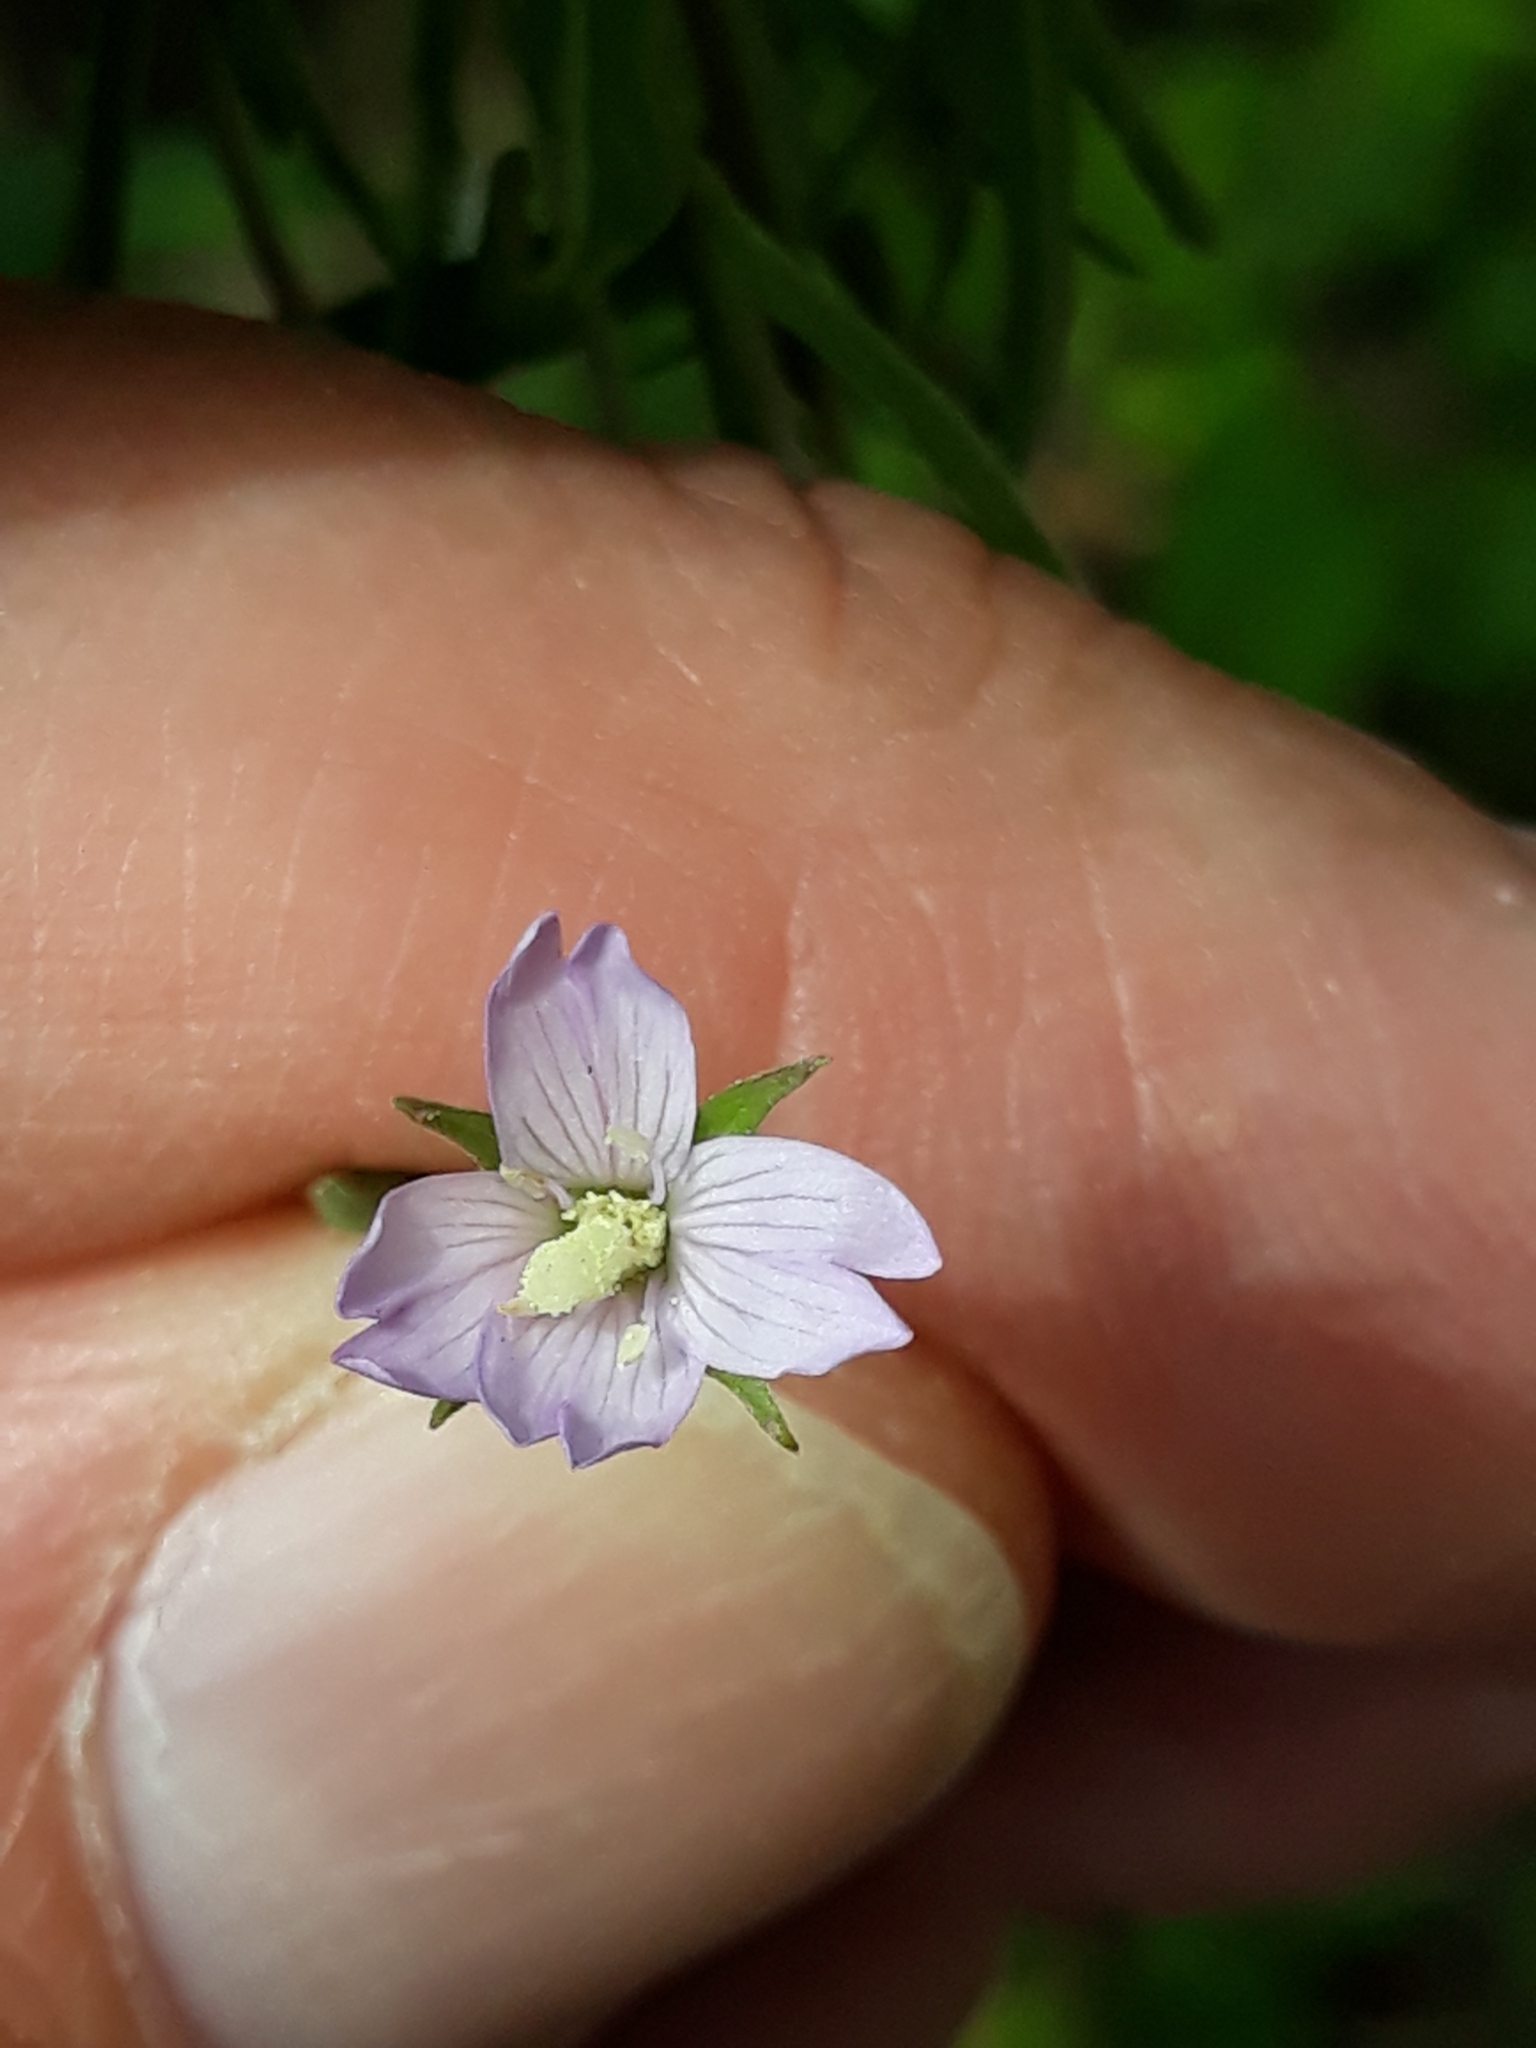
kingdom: Plantae
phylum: Tracheophyta
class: Magnoliopsida
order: Myrtales
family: Onagraceae
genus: Epilobium
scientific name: Epilobium lamyi
